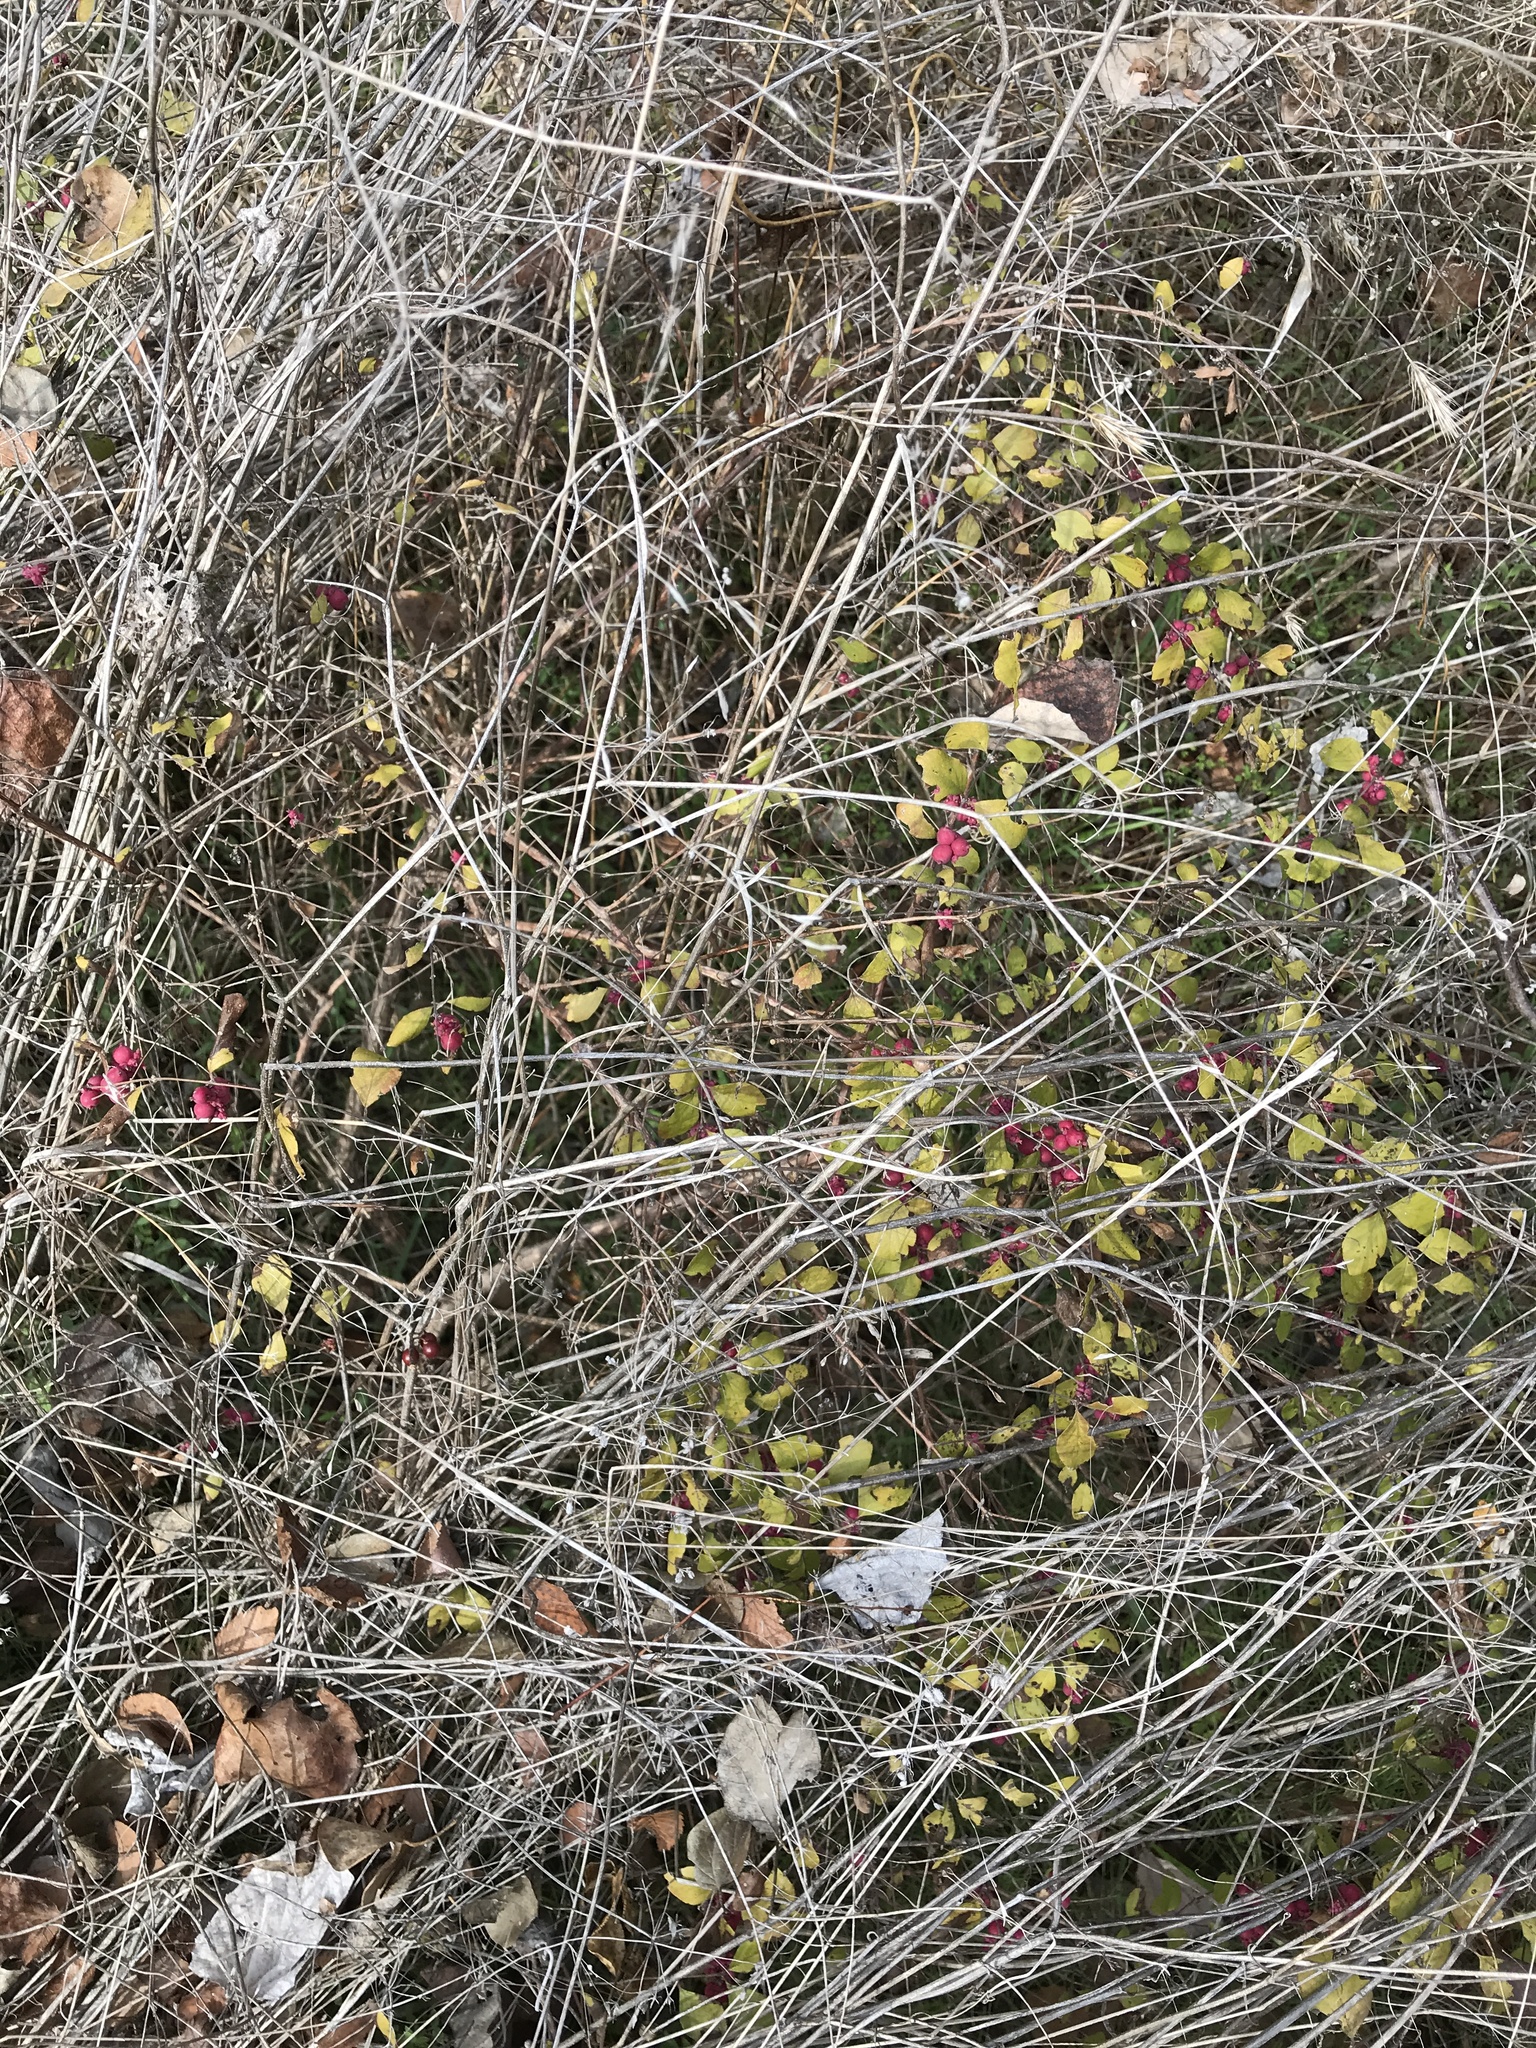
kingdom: Plantae
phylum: Tracheophyta
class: Magnoliopsida
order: Dipsacales
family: Caprifoliaceae
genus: Symphoricarpos
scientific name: Symphoricarpos orbiculatus
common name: Coralberry
